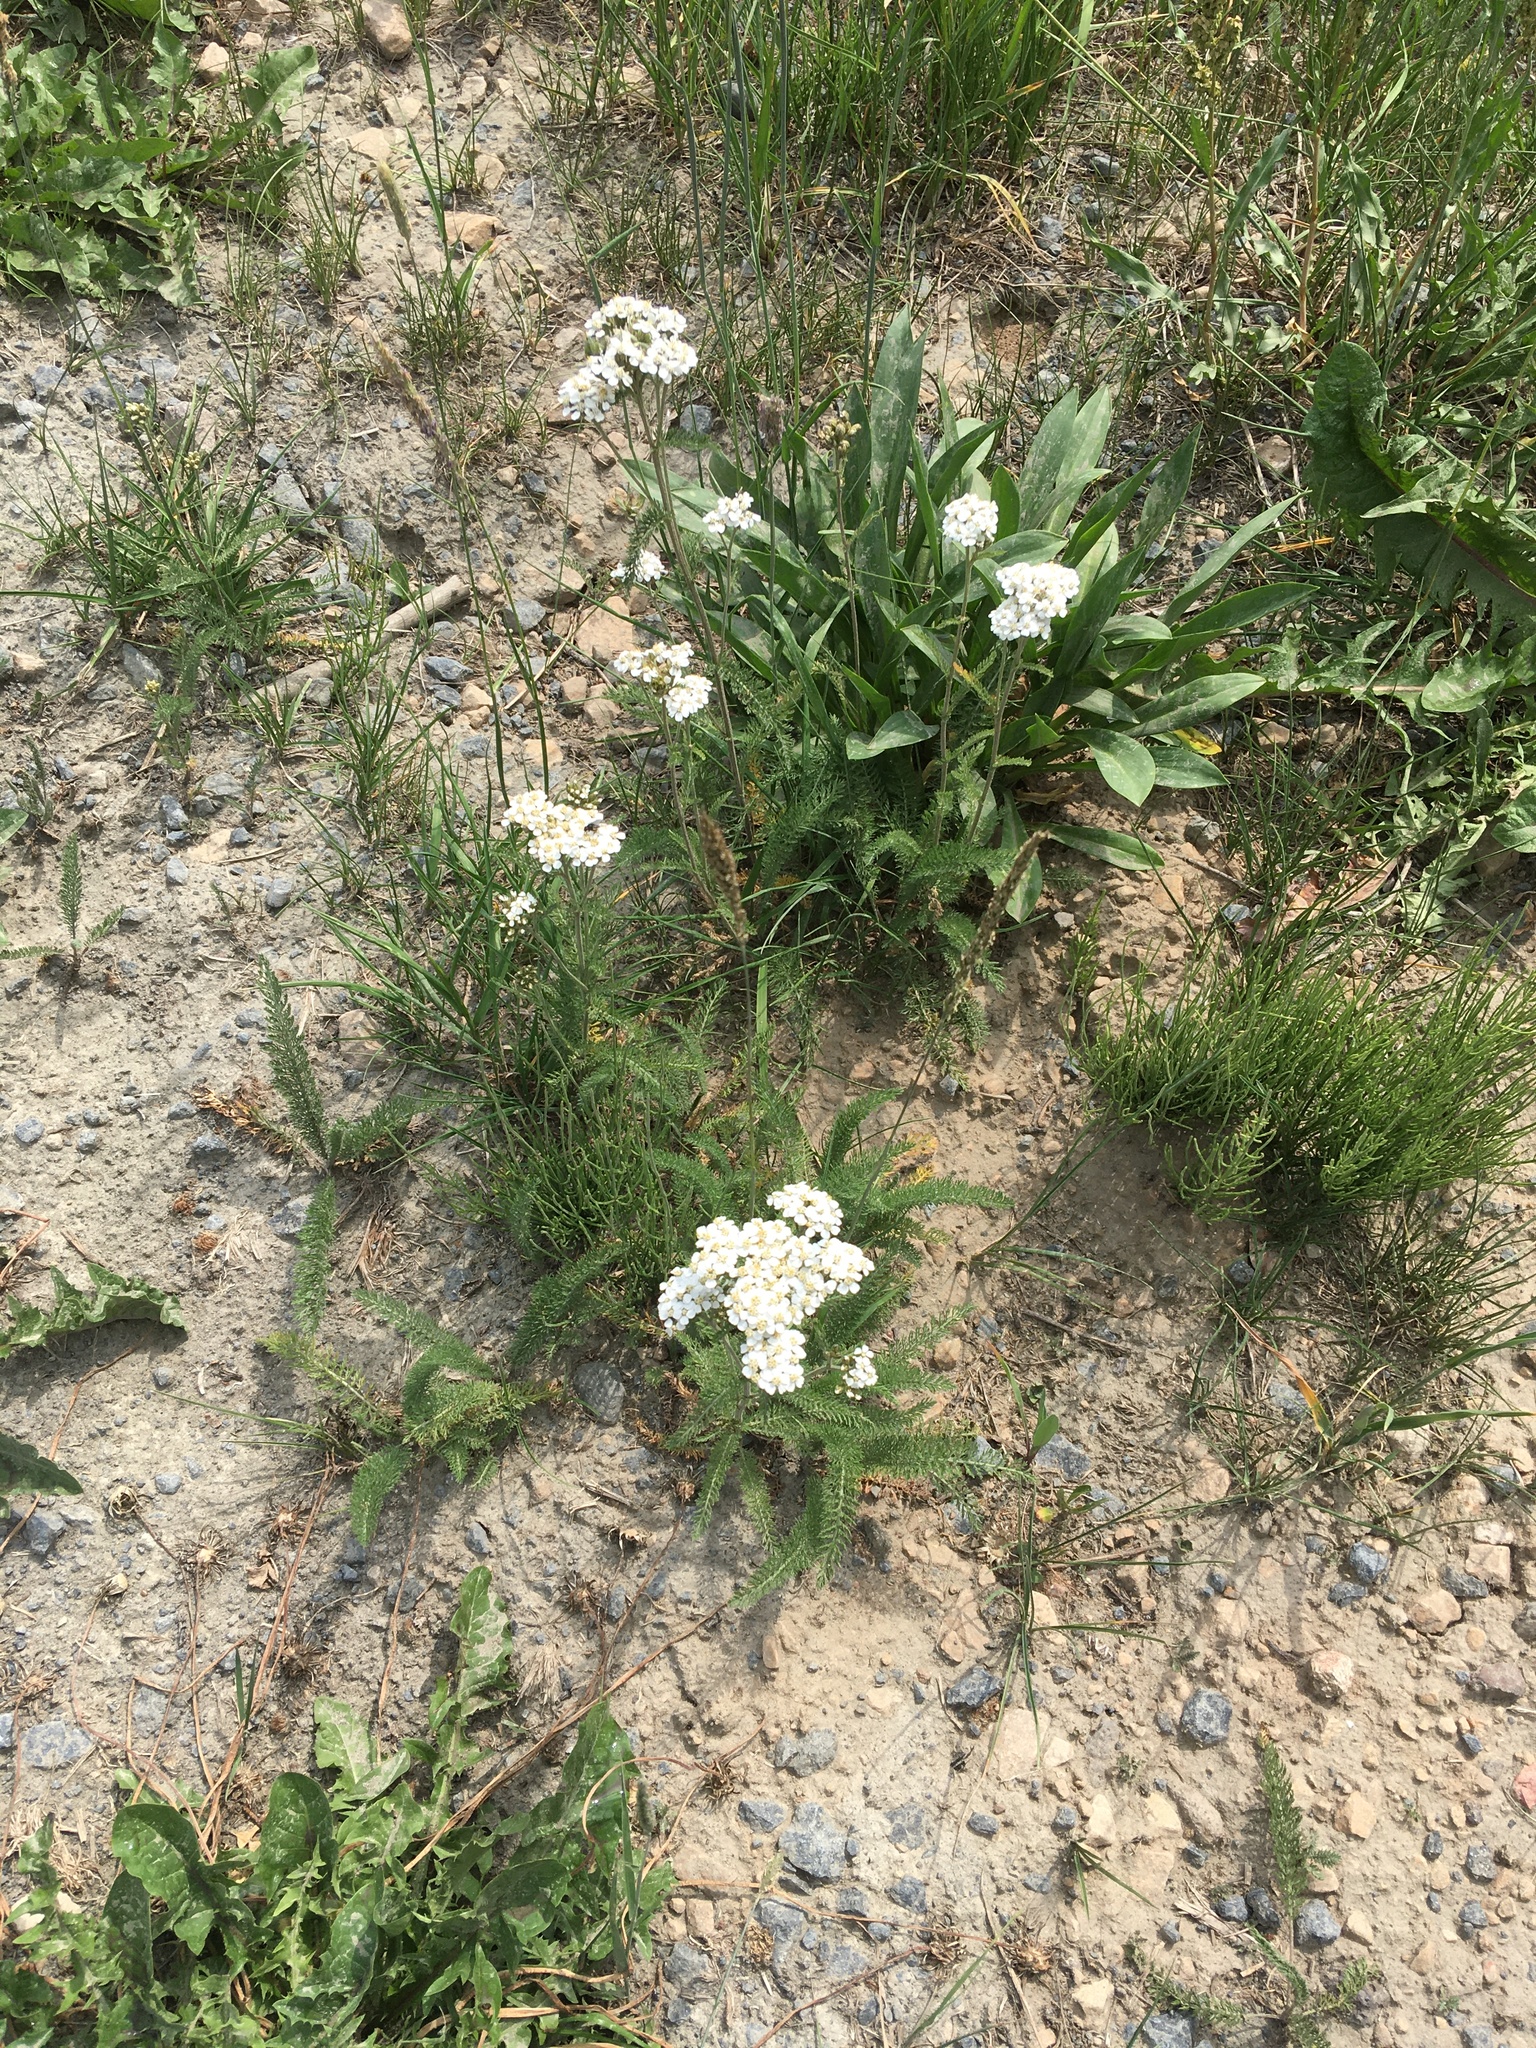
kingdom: Plantae
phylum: Tracheophyta
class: Magnoliopsida
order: Asterales
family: Asteraceae
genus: Achillea
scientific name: Achillea millefolium
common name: Yarrow
